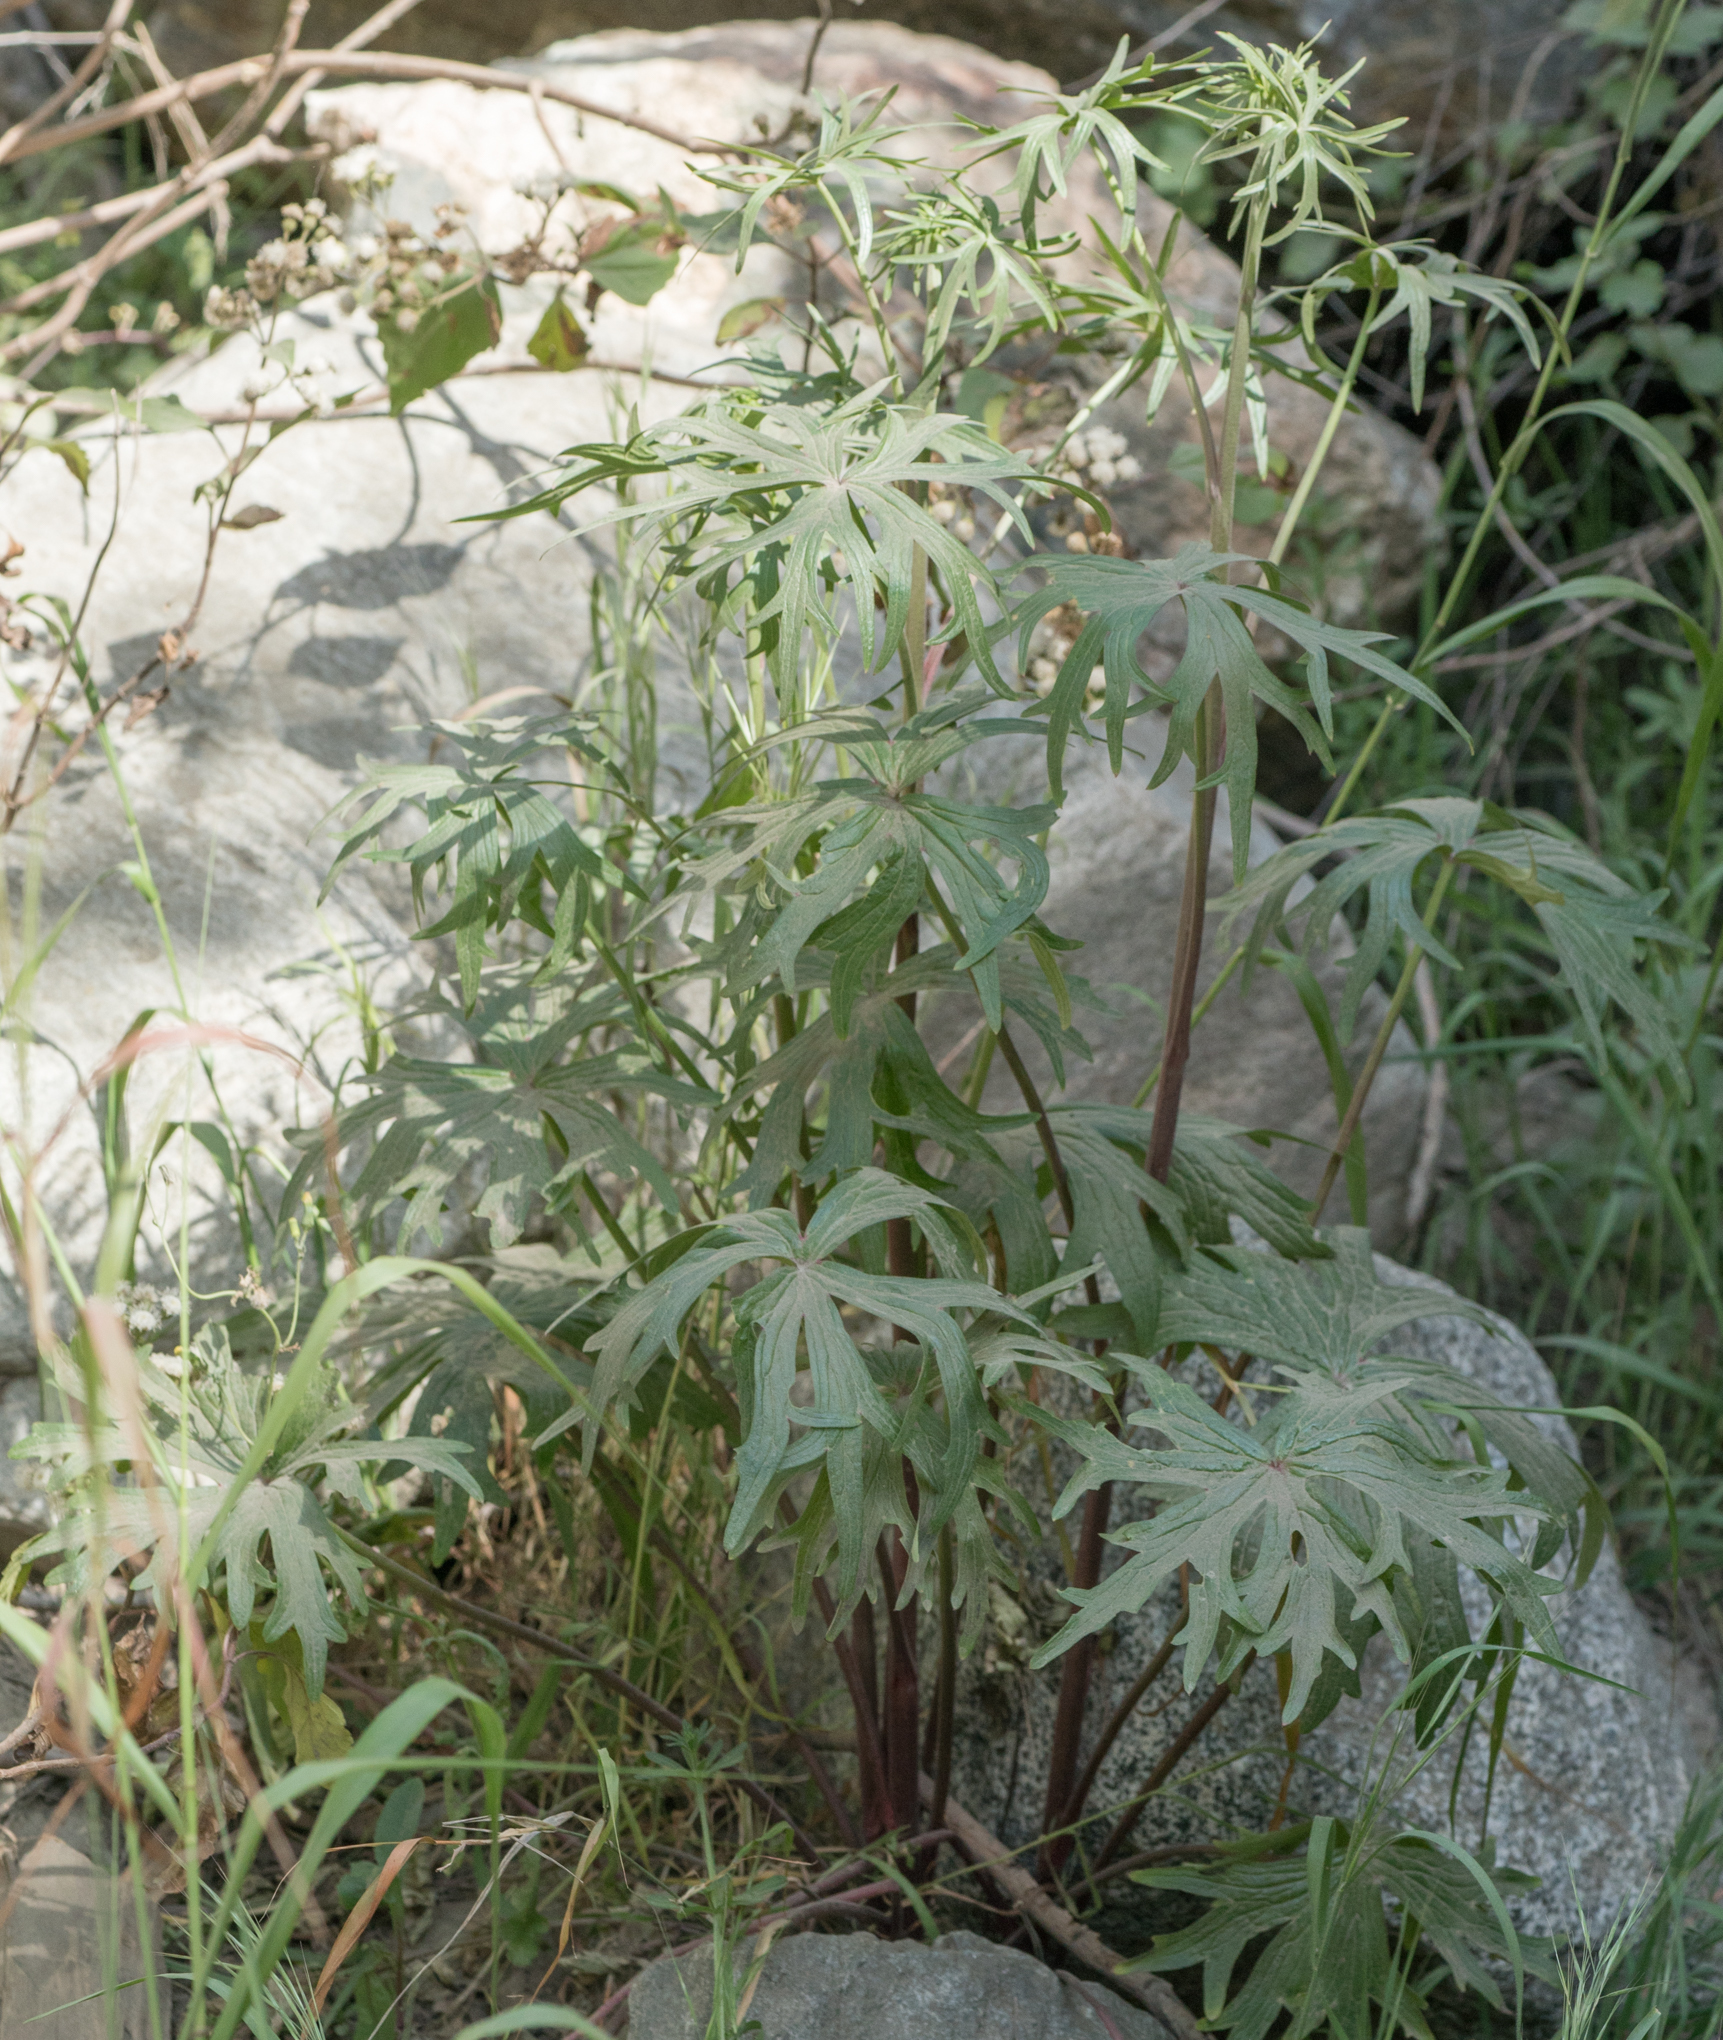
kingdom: Plantae
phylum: Tracheophyta
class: Magnoliopsida
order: Ranunculales
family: Ranunculaceae
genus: Delphinium
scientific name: Delphinium cardinale
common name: Scarlet larkspur
